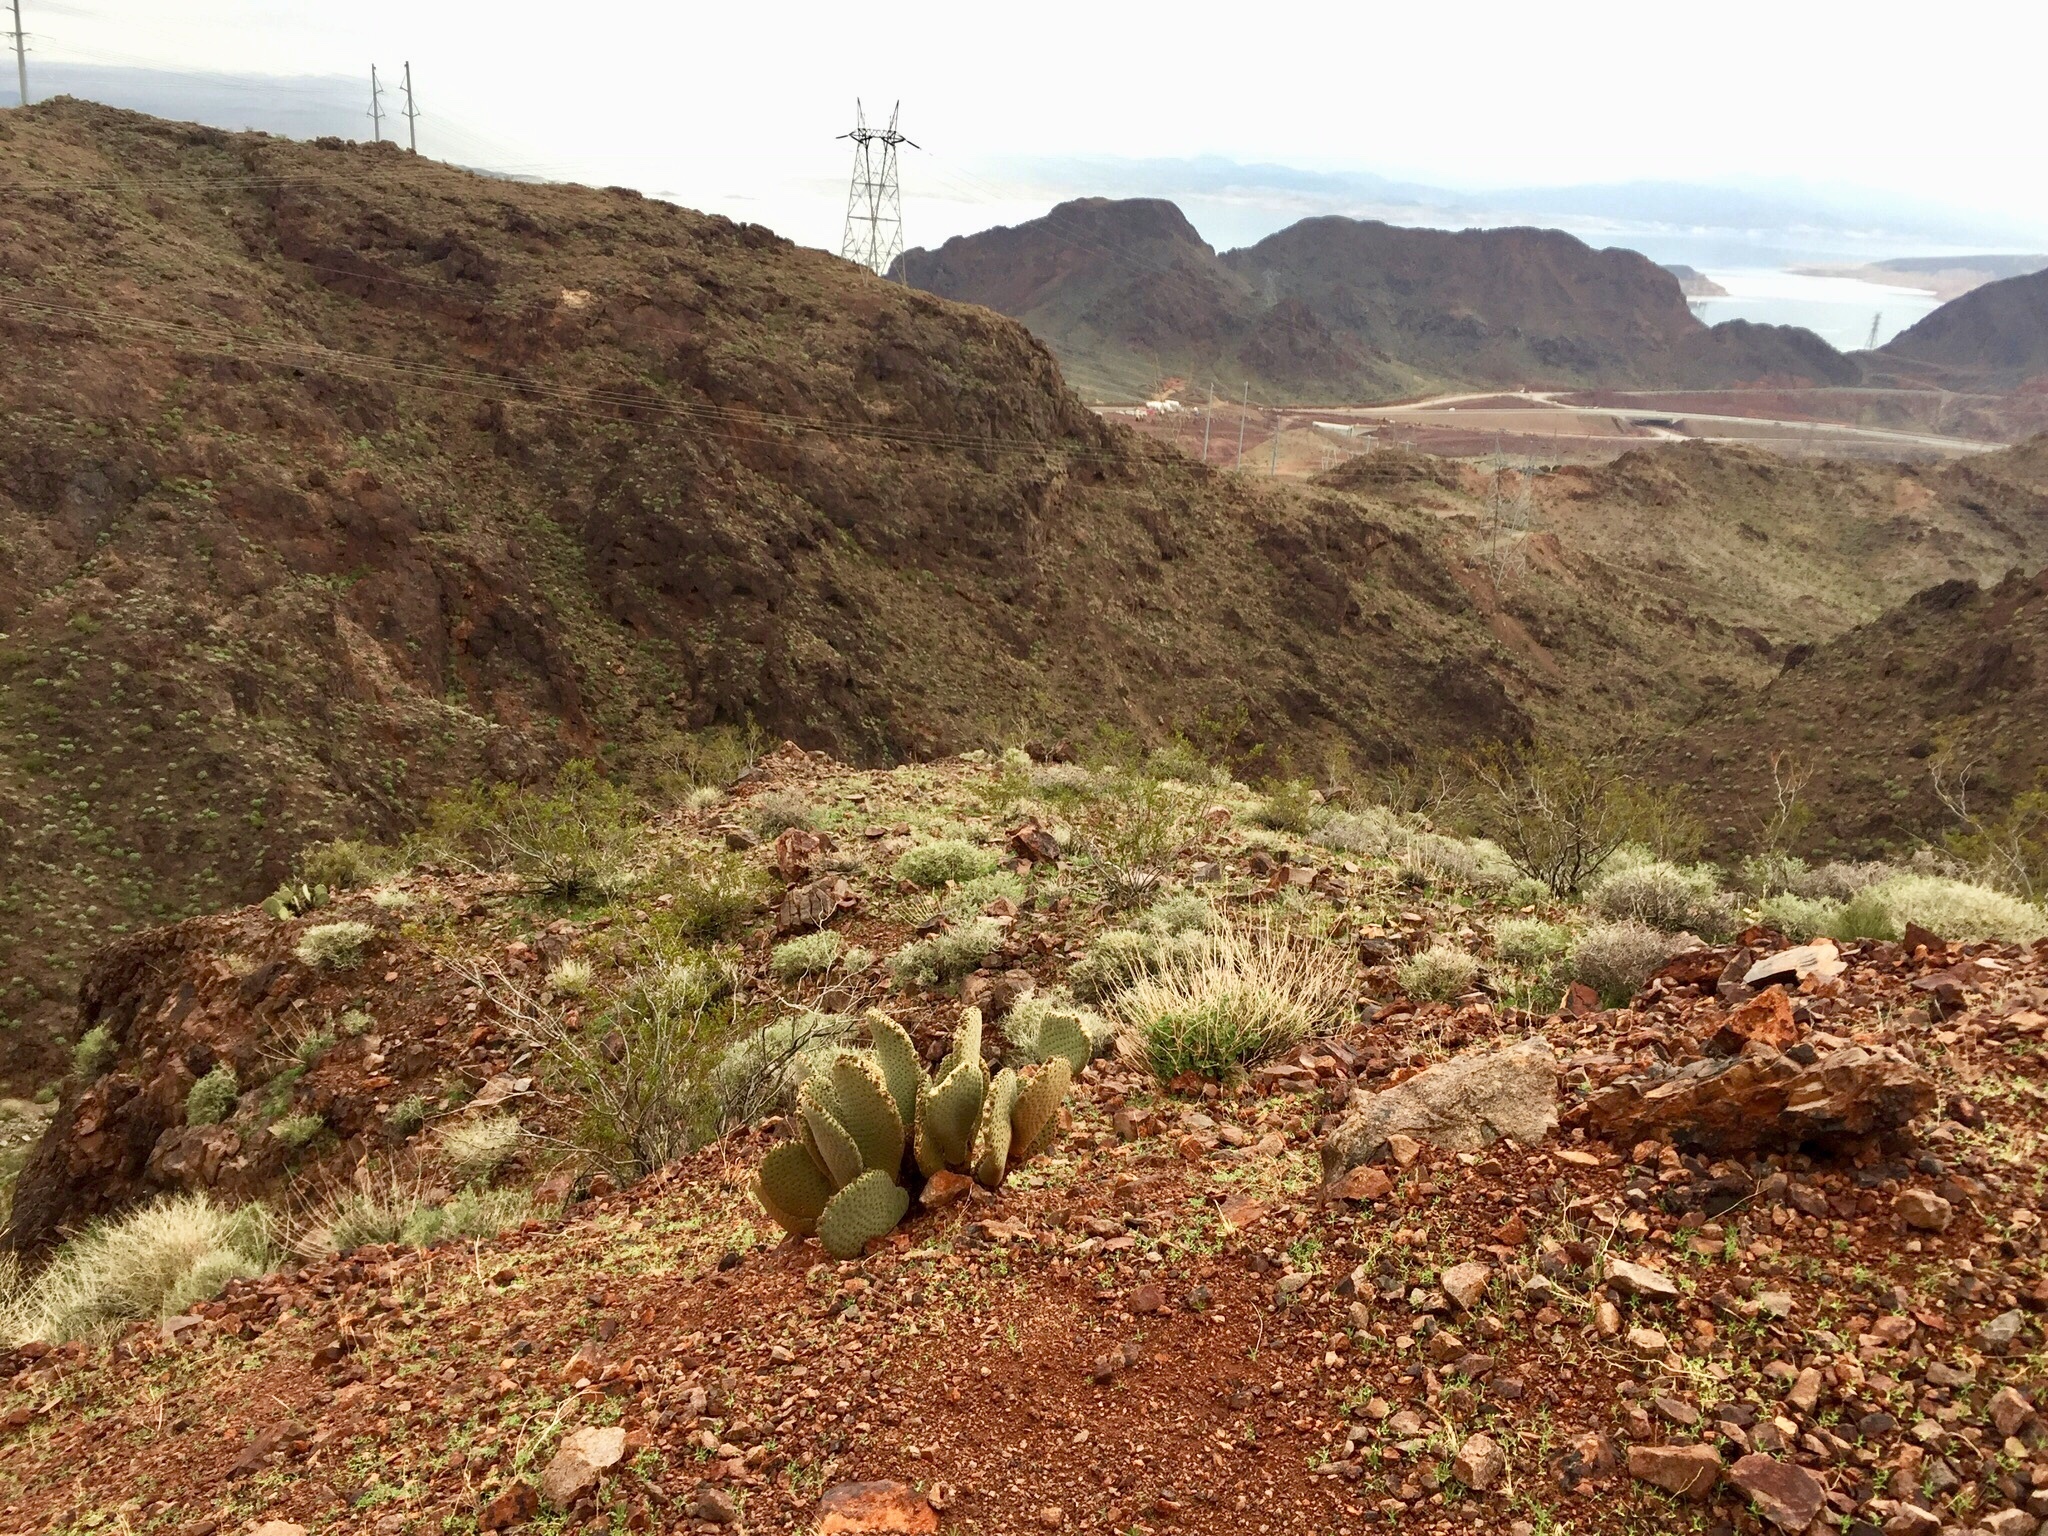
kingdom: Plantae
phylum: Tracheophyta
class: Magnoliopsida
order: Caryophyllales
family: Cactaceae
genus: Opuntia
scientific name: Opuntia basilaris
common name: Beavertail prickly-pear
